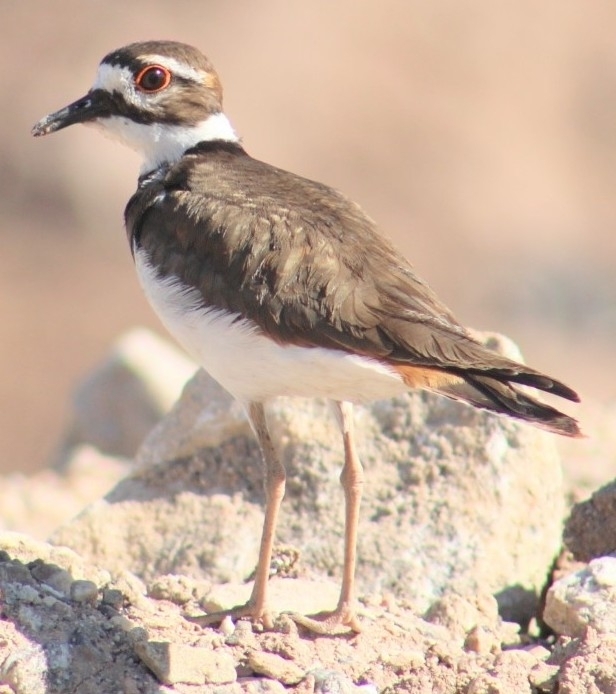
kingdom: Animalia
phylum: Chordata
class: Aves
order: Charadriiformes
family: Charadriidae
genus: Charadrius
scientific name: Charadrius vociferus
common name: Killdeer
